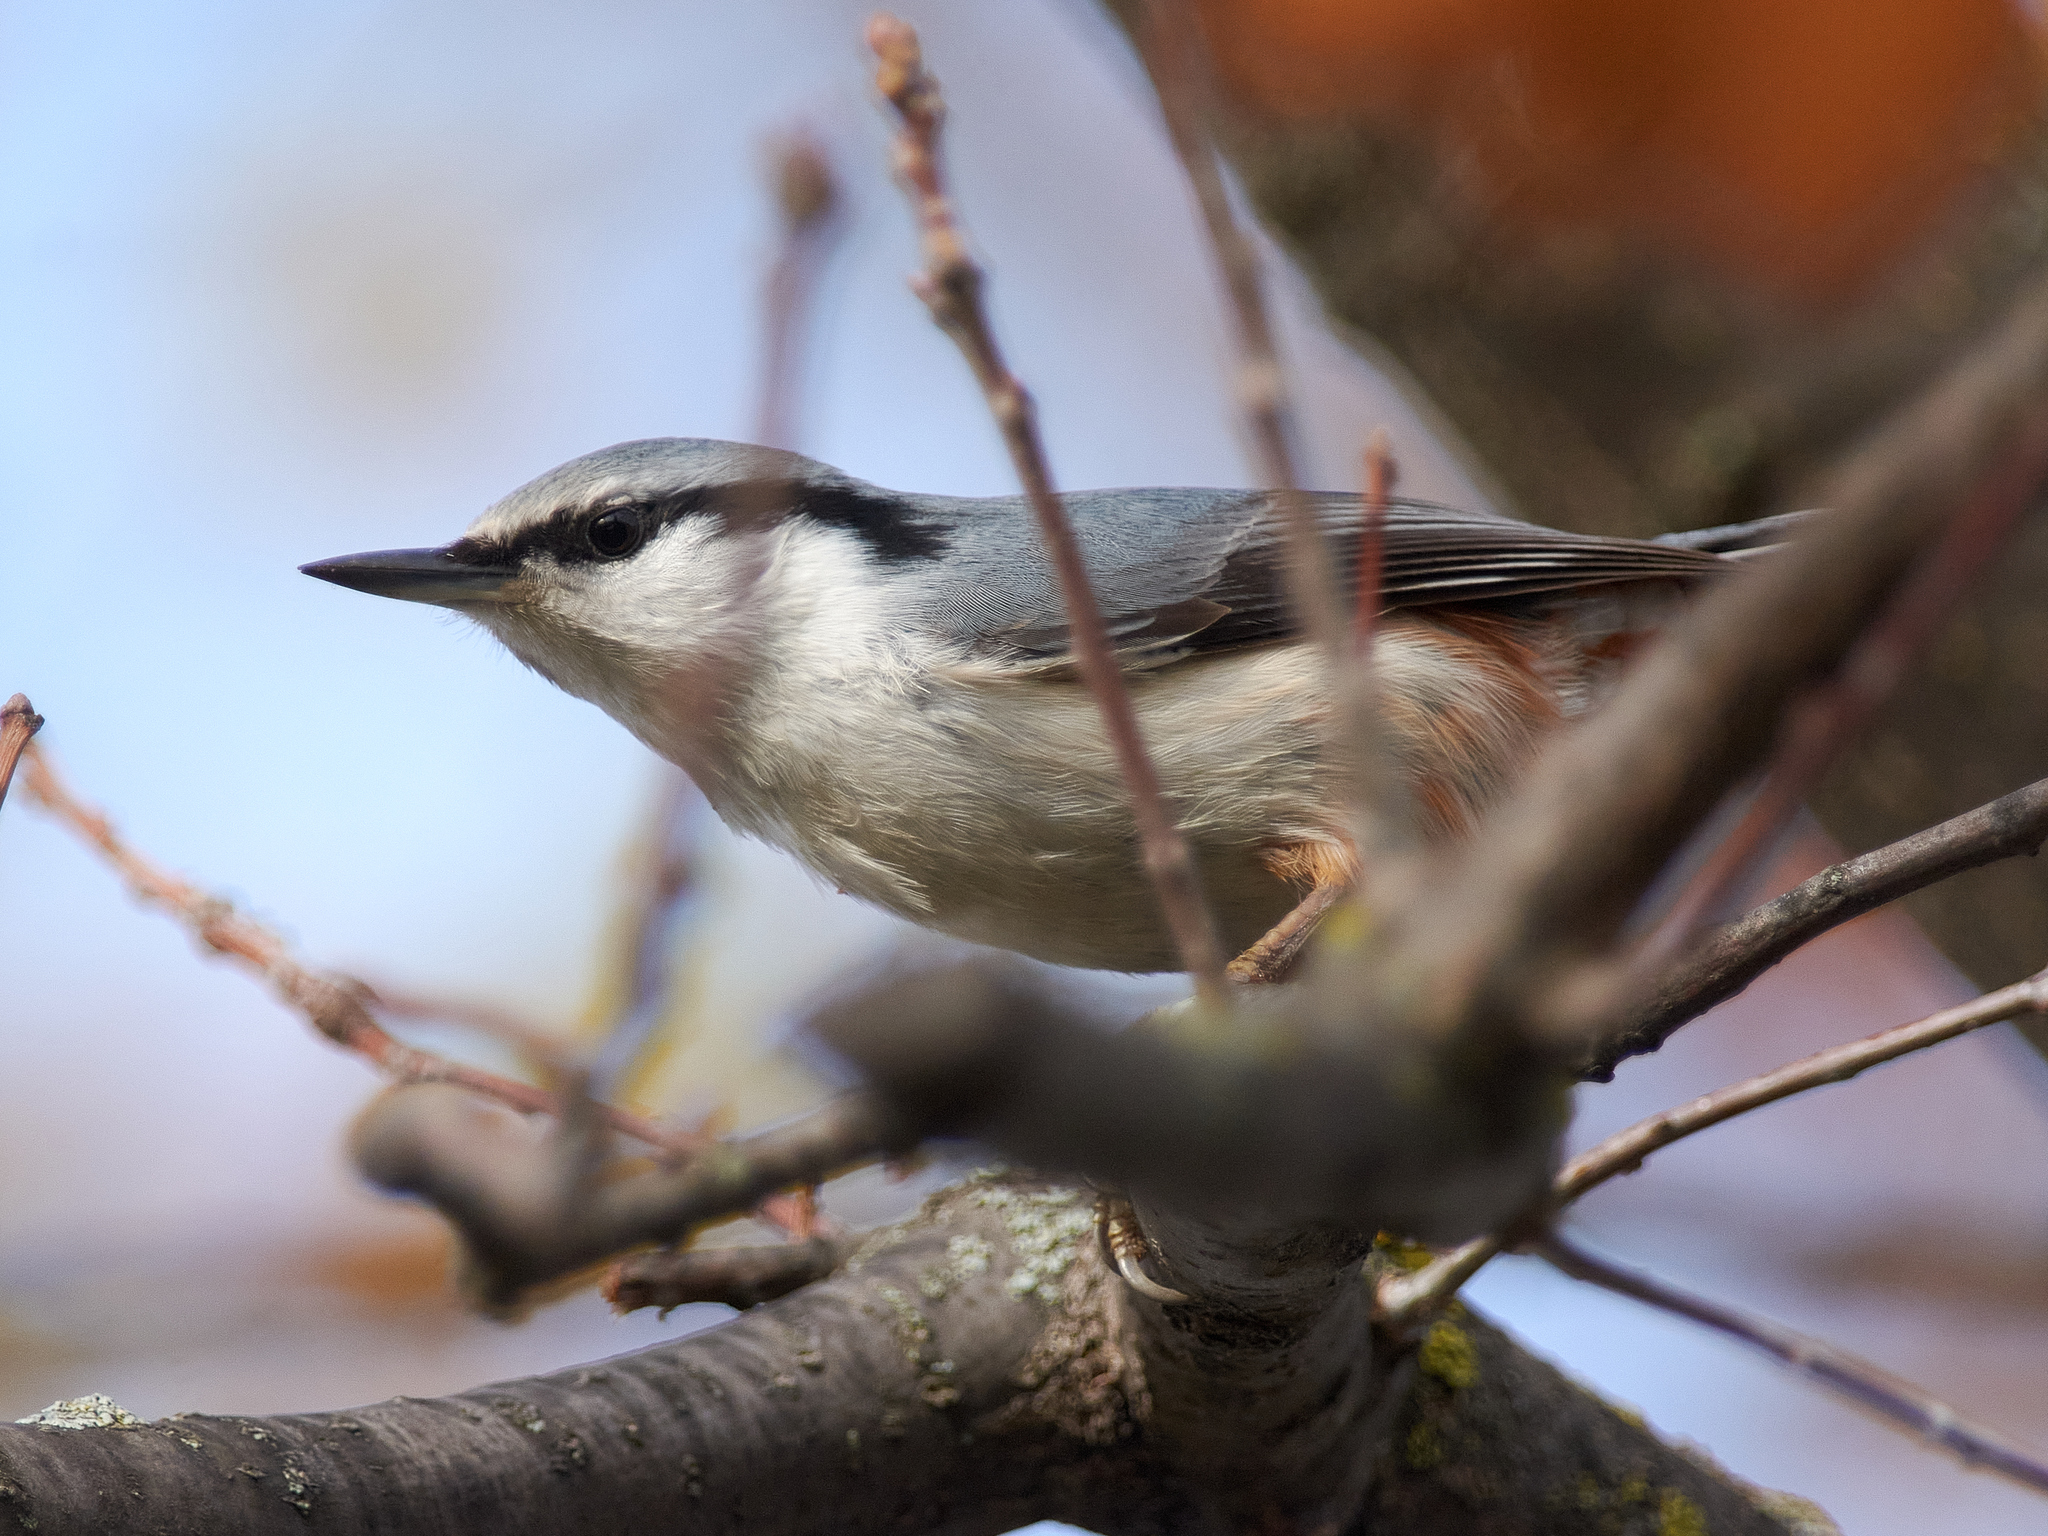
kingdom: Animalia
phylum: Chordata
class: Aves
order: Passeriformes
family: Sittidae
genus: Sitta
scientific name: Sitta europaea
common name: Eurasian nuthatch
